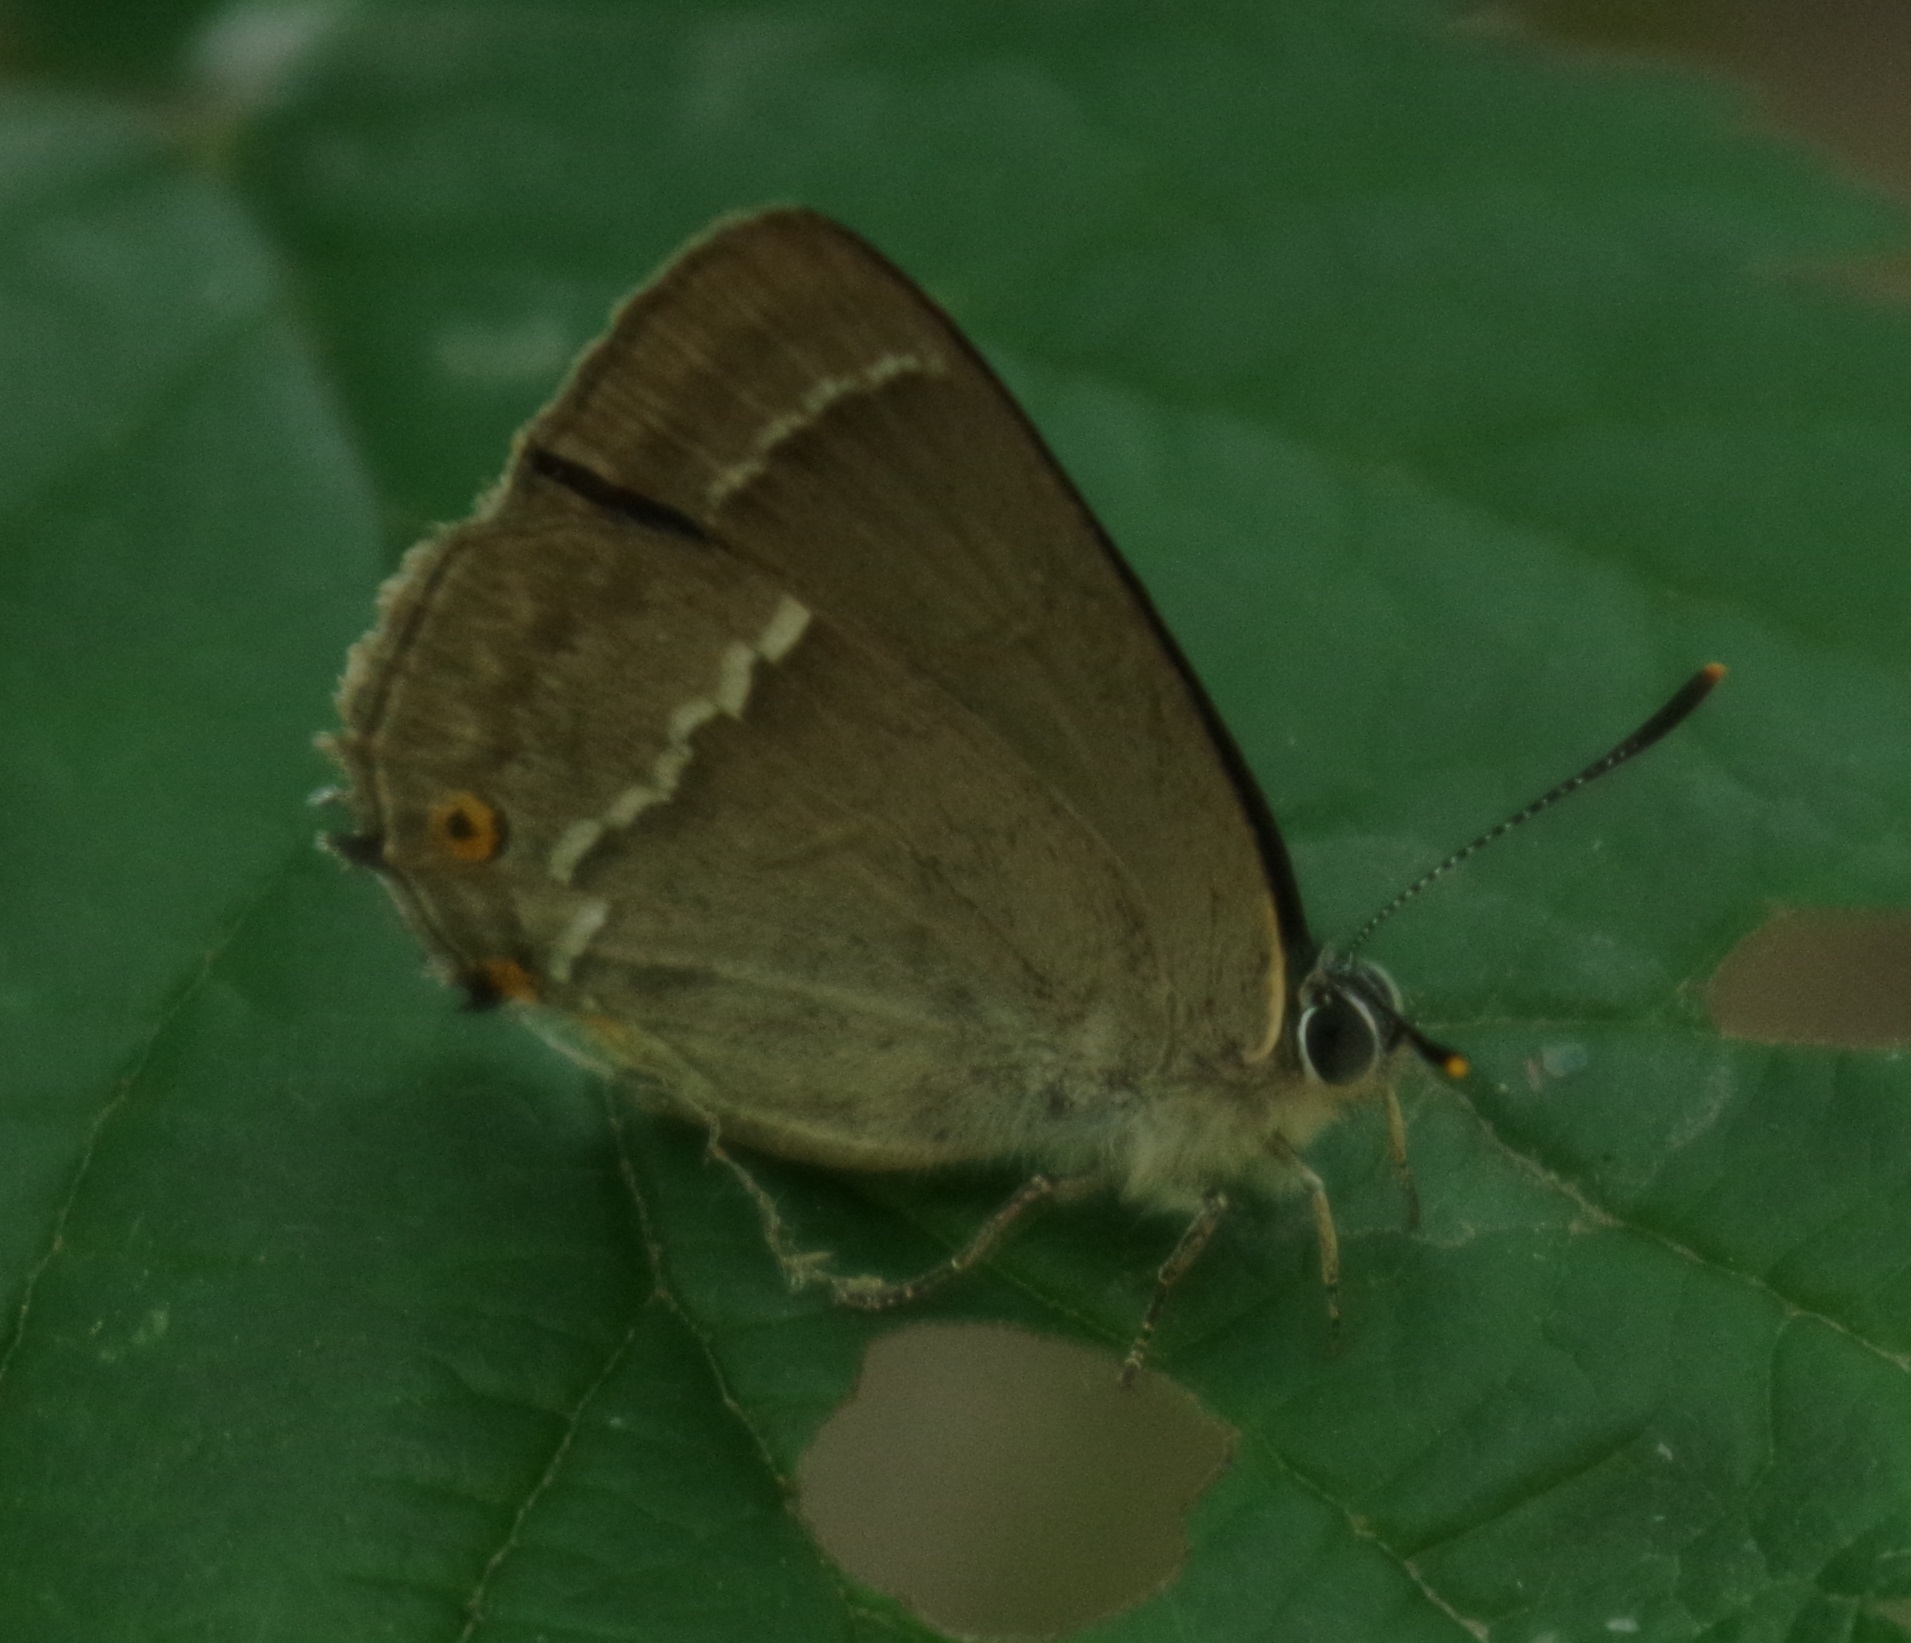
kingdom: Animalia
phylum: Arthropoda
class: Insecta
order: Lepidoptera
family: Lycaenidae
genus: Quercusia
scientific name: Quercusia quercus
